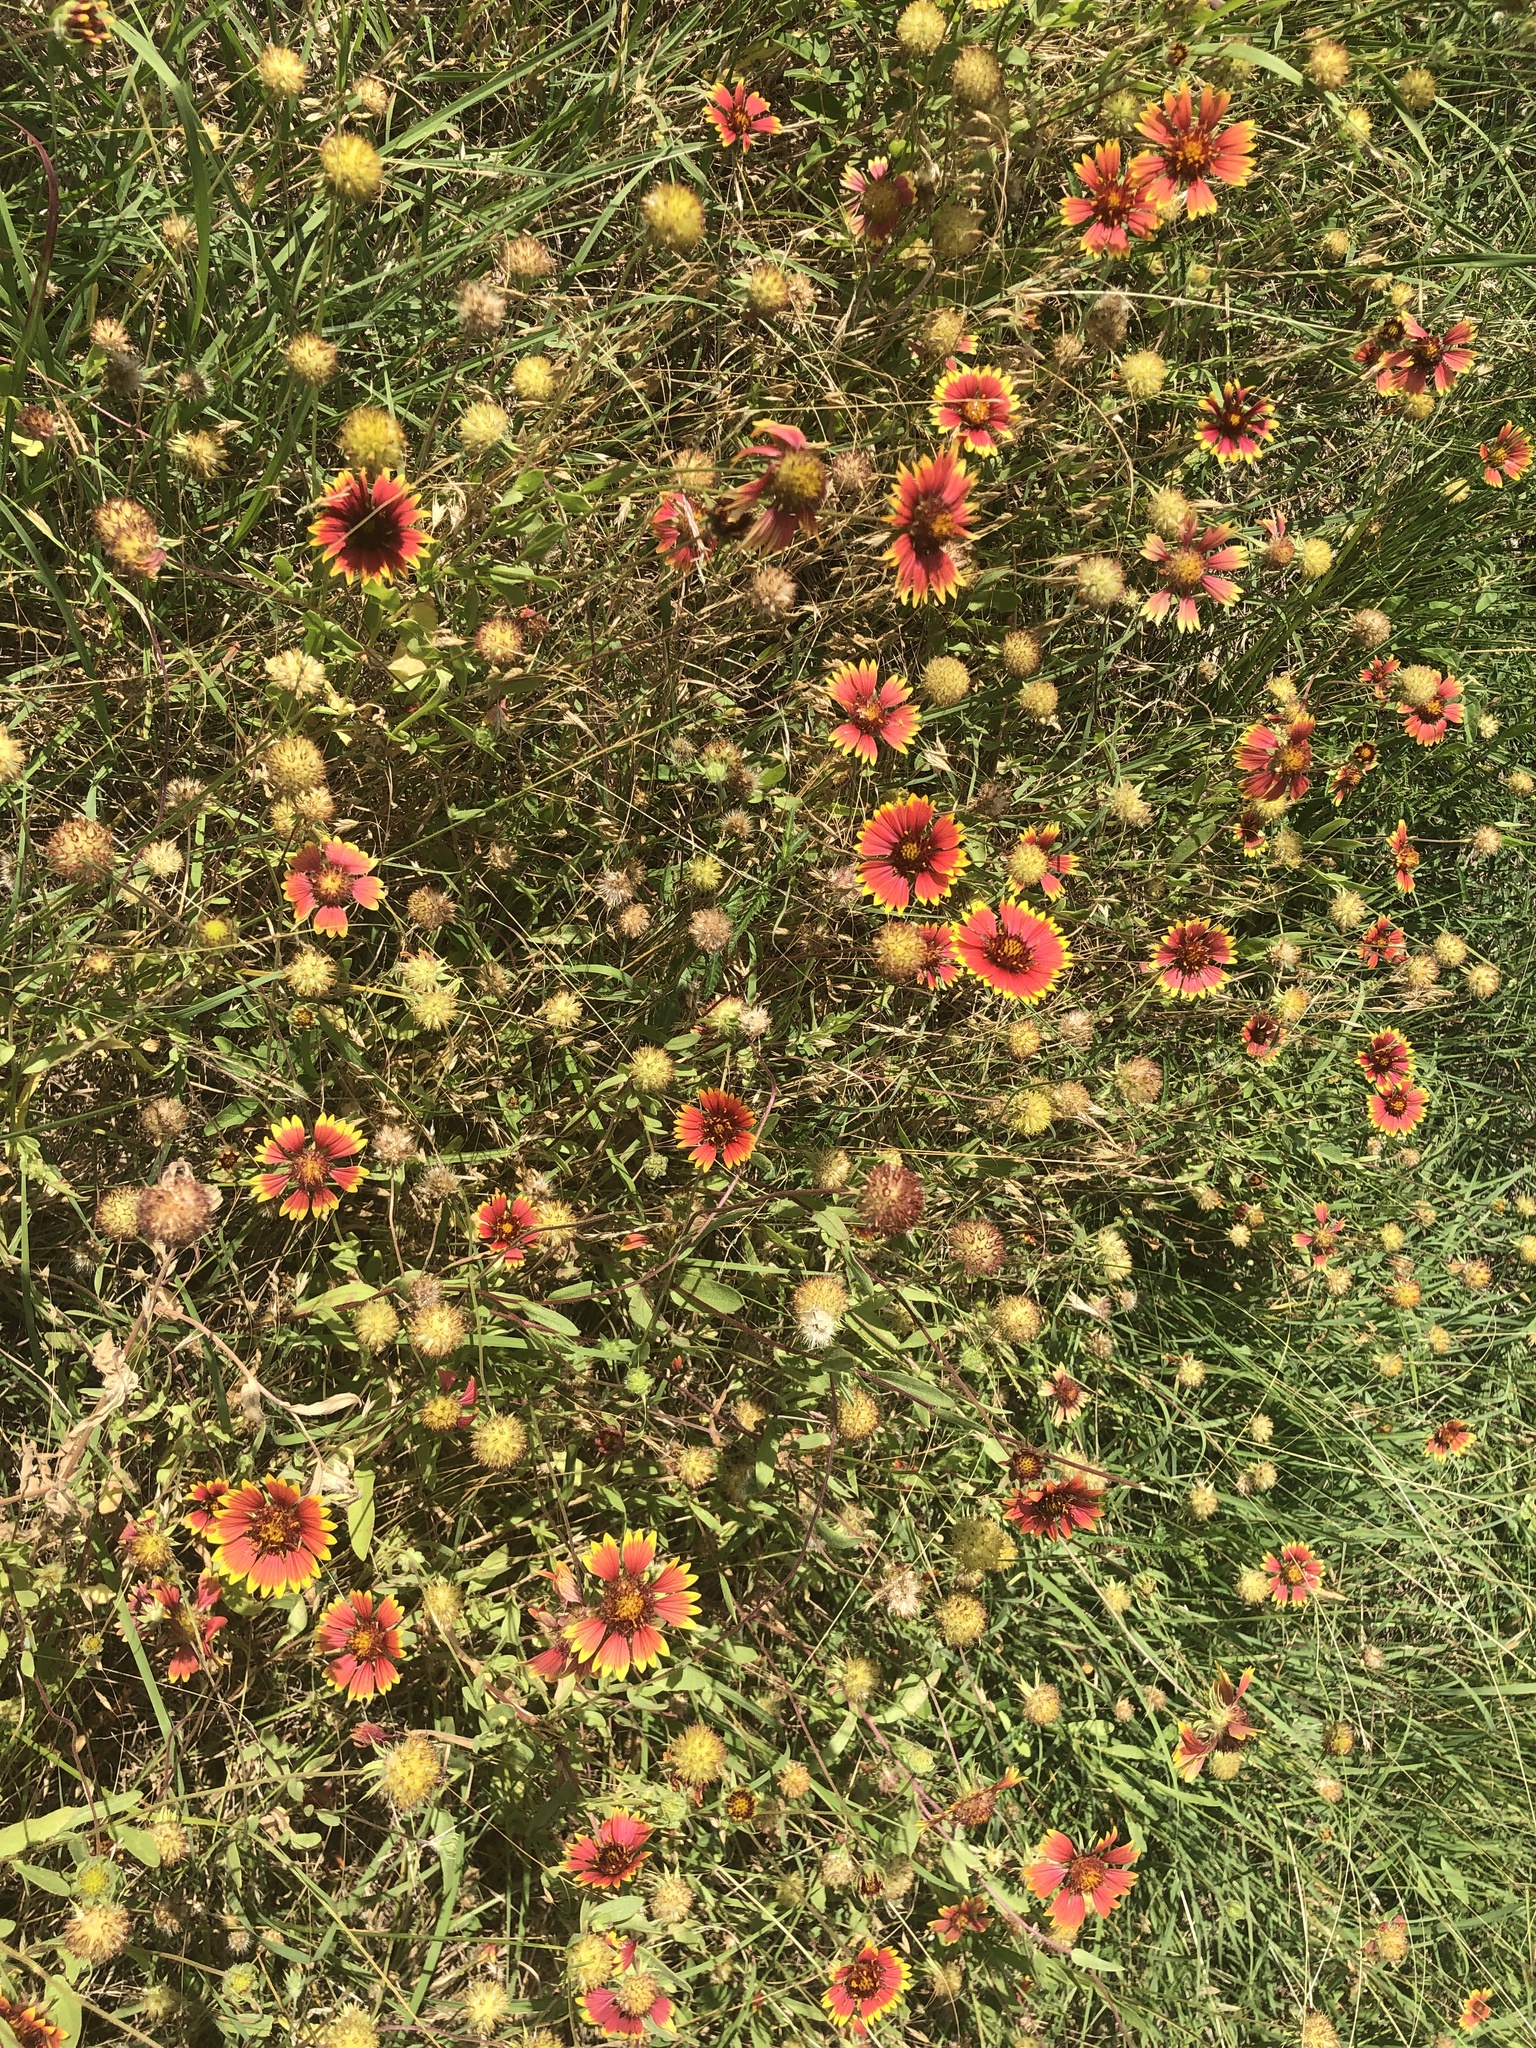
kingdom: Plantae
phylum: Tracheophyta
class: Magnoliopsida
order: Asterales
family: Asteraceae
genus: Gaillardia
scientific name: Gaillardia pulchella
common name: Firewheel
